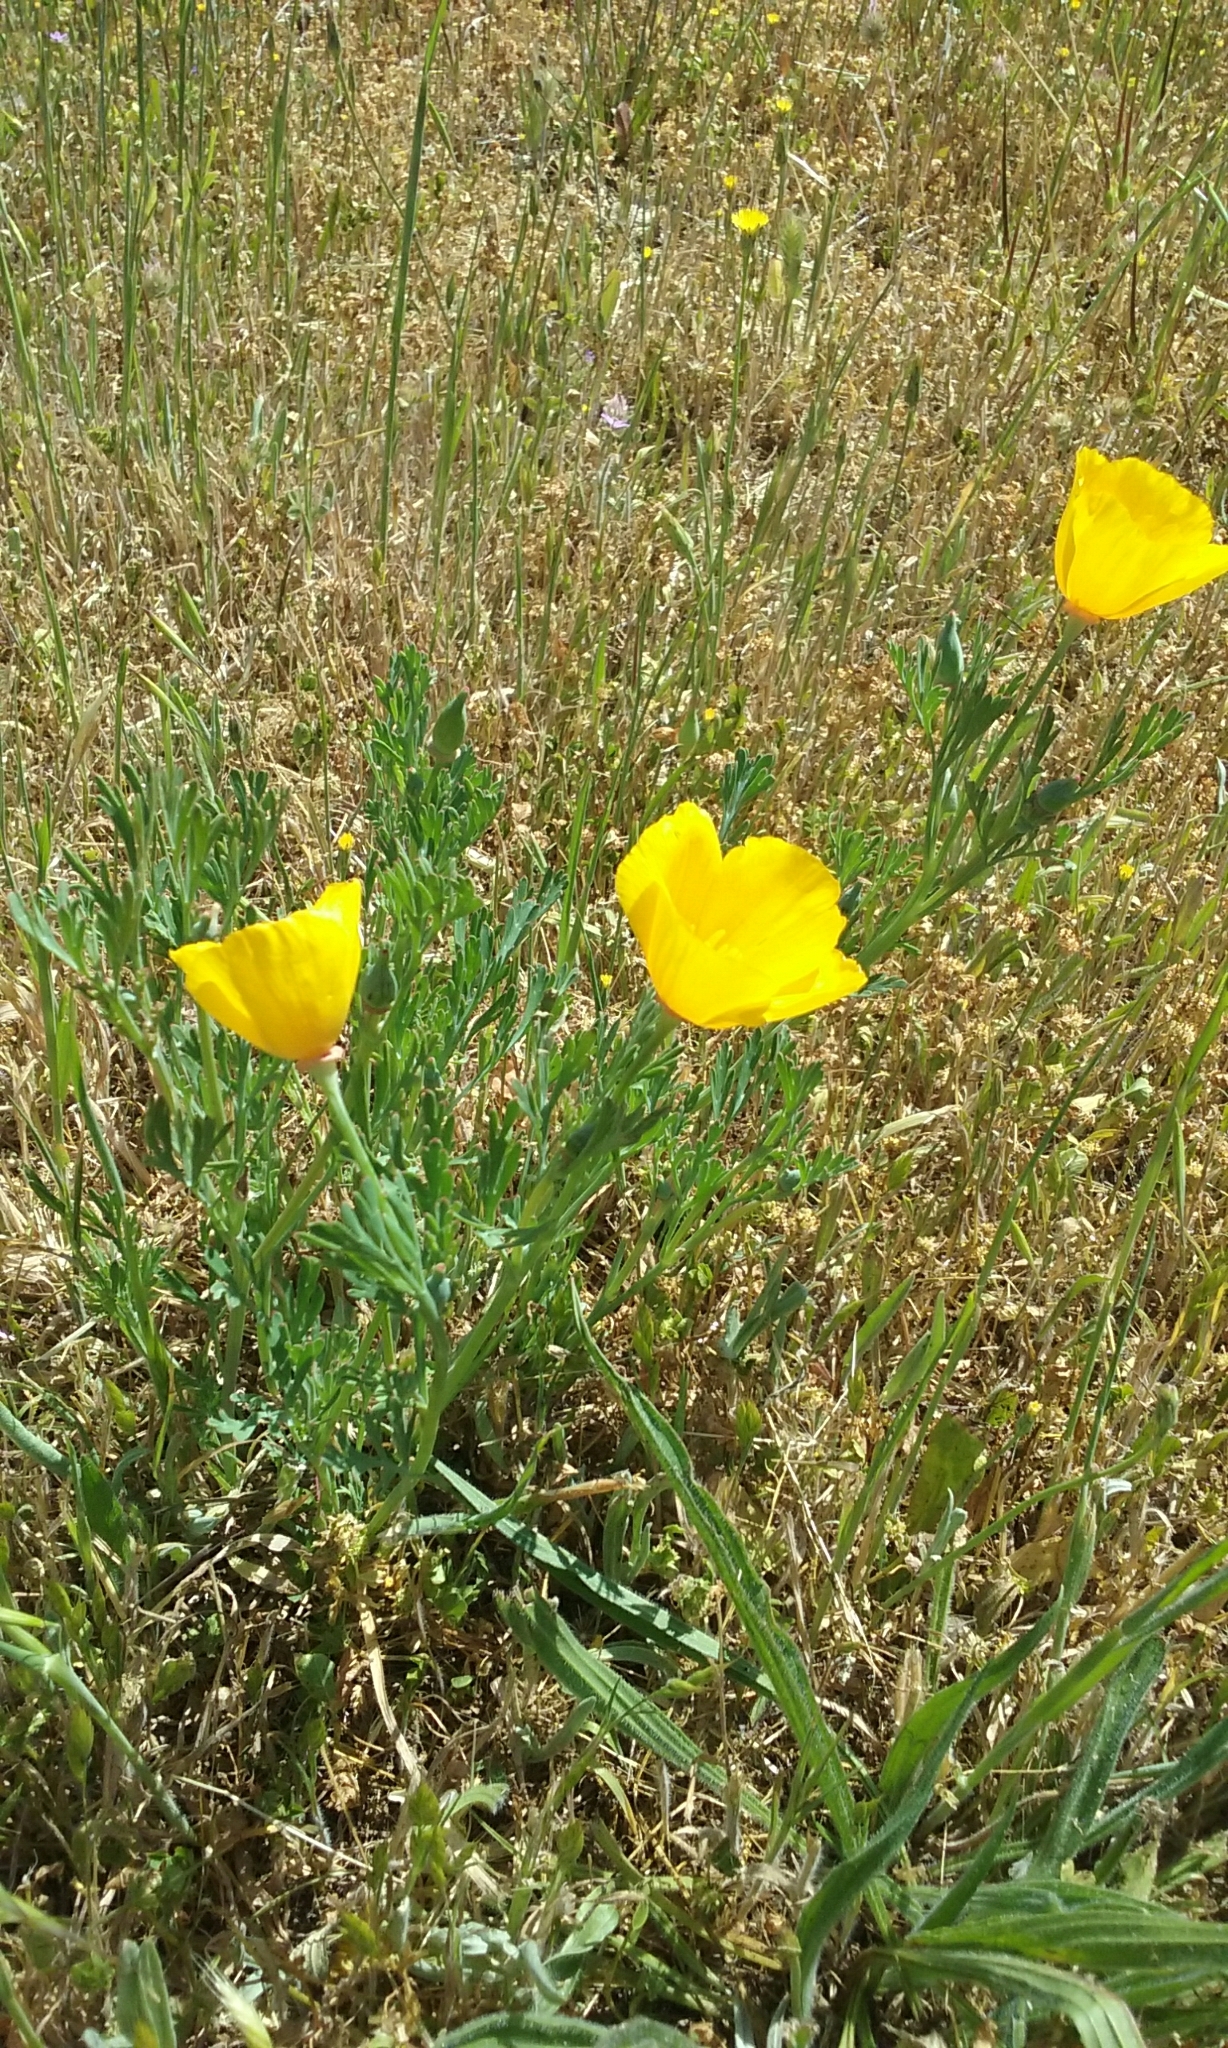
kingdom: Plantae
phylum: Tracheophyta
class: Magnoliopsida
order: Ranunculales
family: Papaveraceae
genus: Eschscholzia
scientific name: Eschscholzia californica
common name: California poppy
